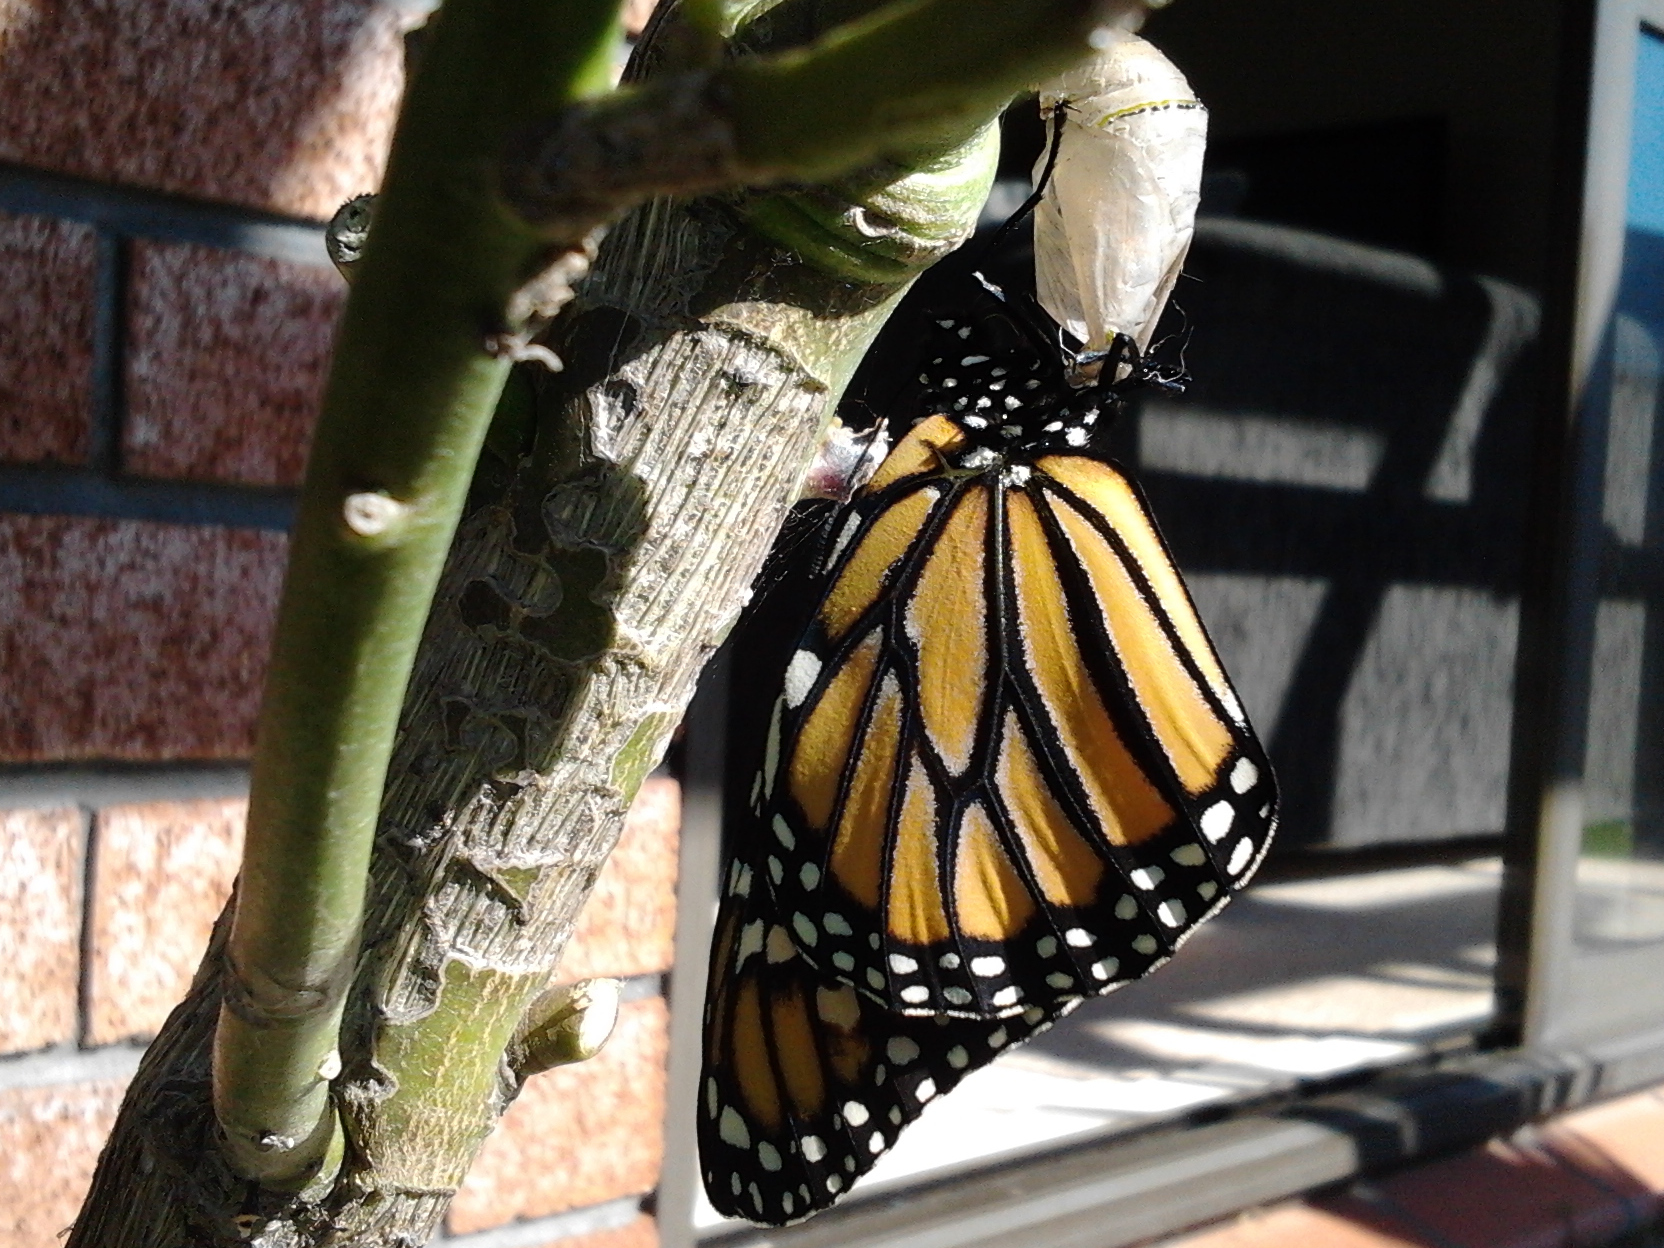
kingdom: Animalia
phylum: Arthropoda
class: Insecta
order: Lepidoptera
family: Nymphalidae
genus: Danaus
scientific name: Danaus plexippus
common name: Monarch
